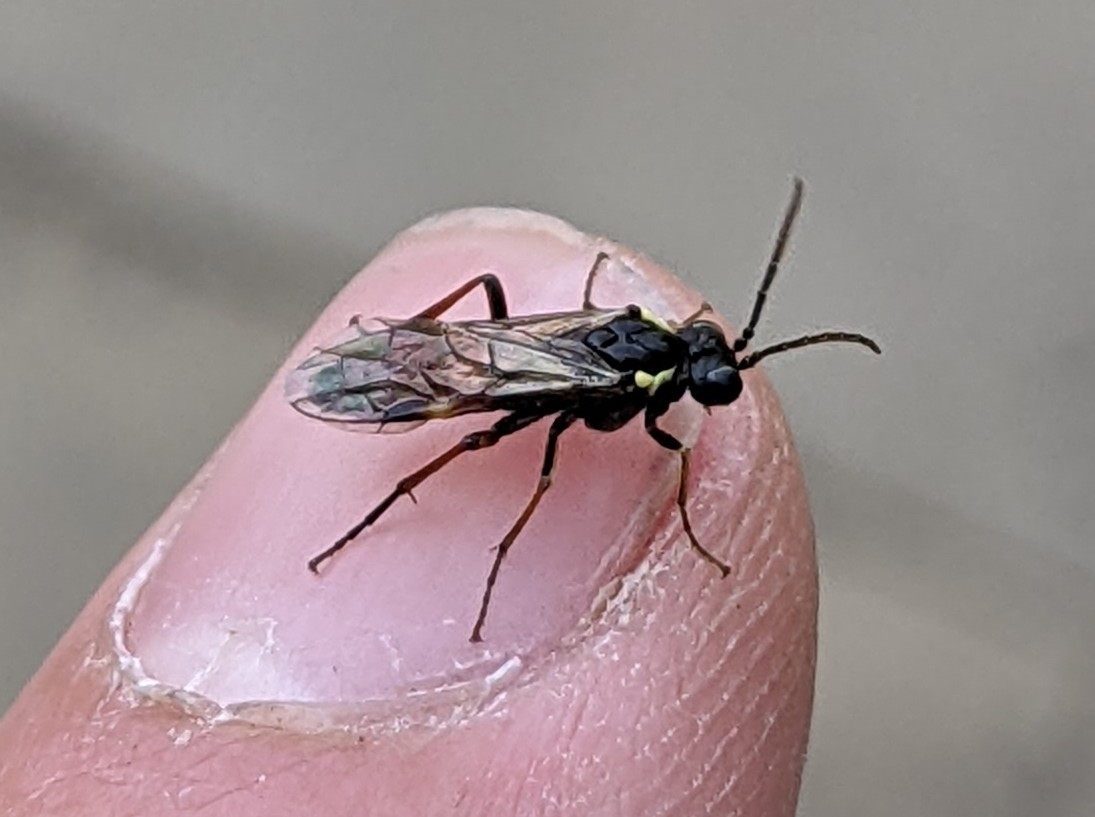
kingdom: Animalia
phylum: Arthropoda
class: Insecta
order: Hymenoptera
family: Tenthredinidae
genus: Aglaostigma
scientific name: Aglaostigma aucupariae
